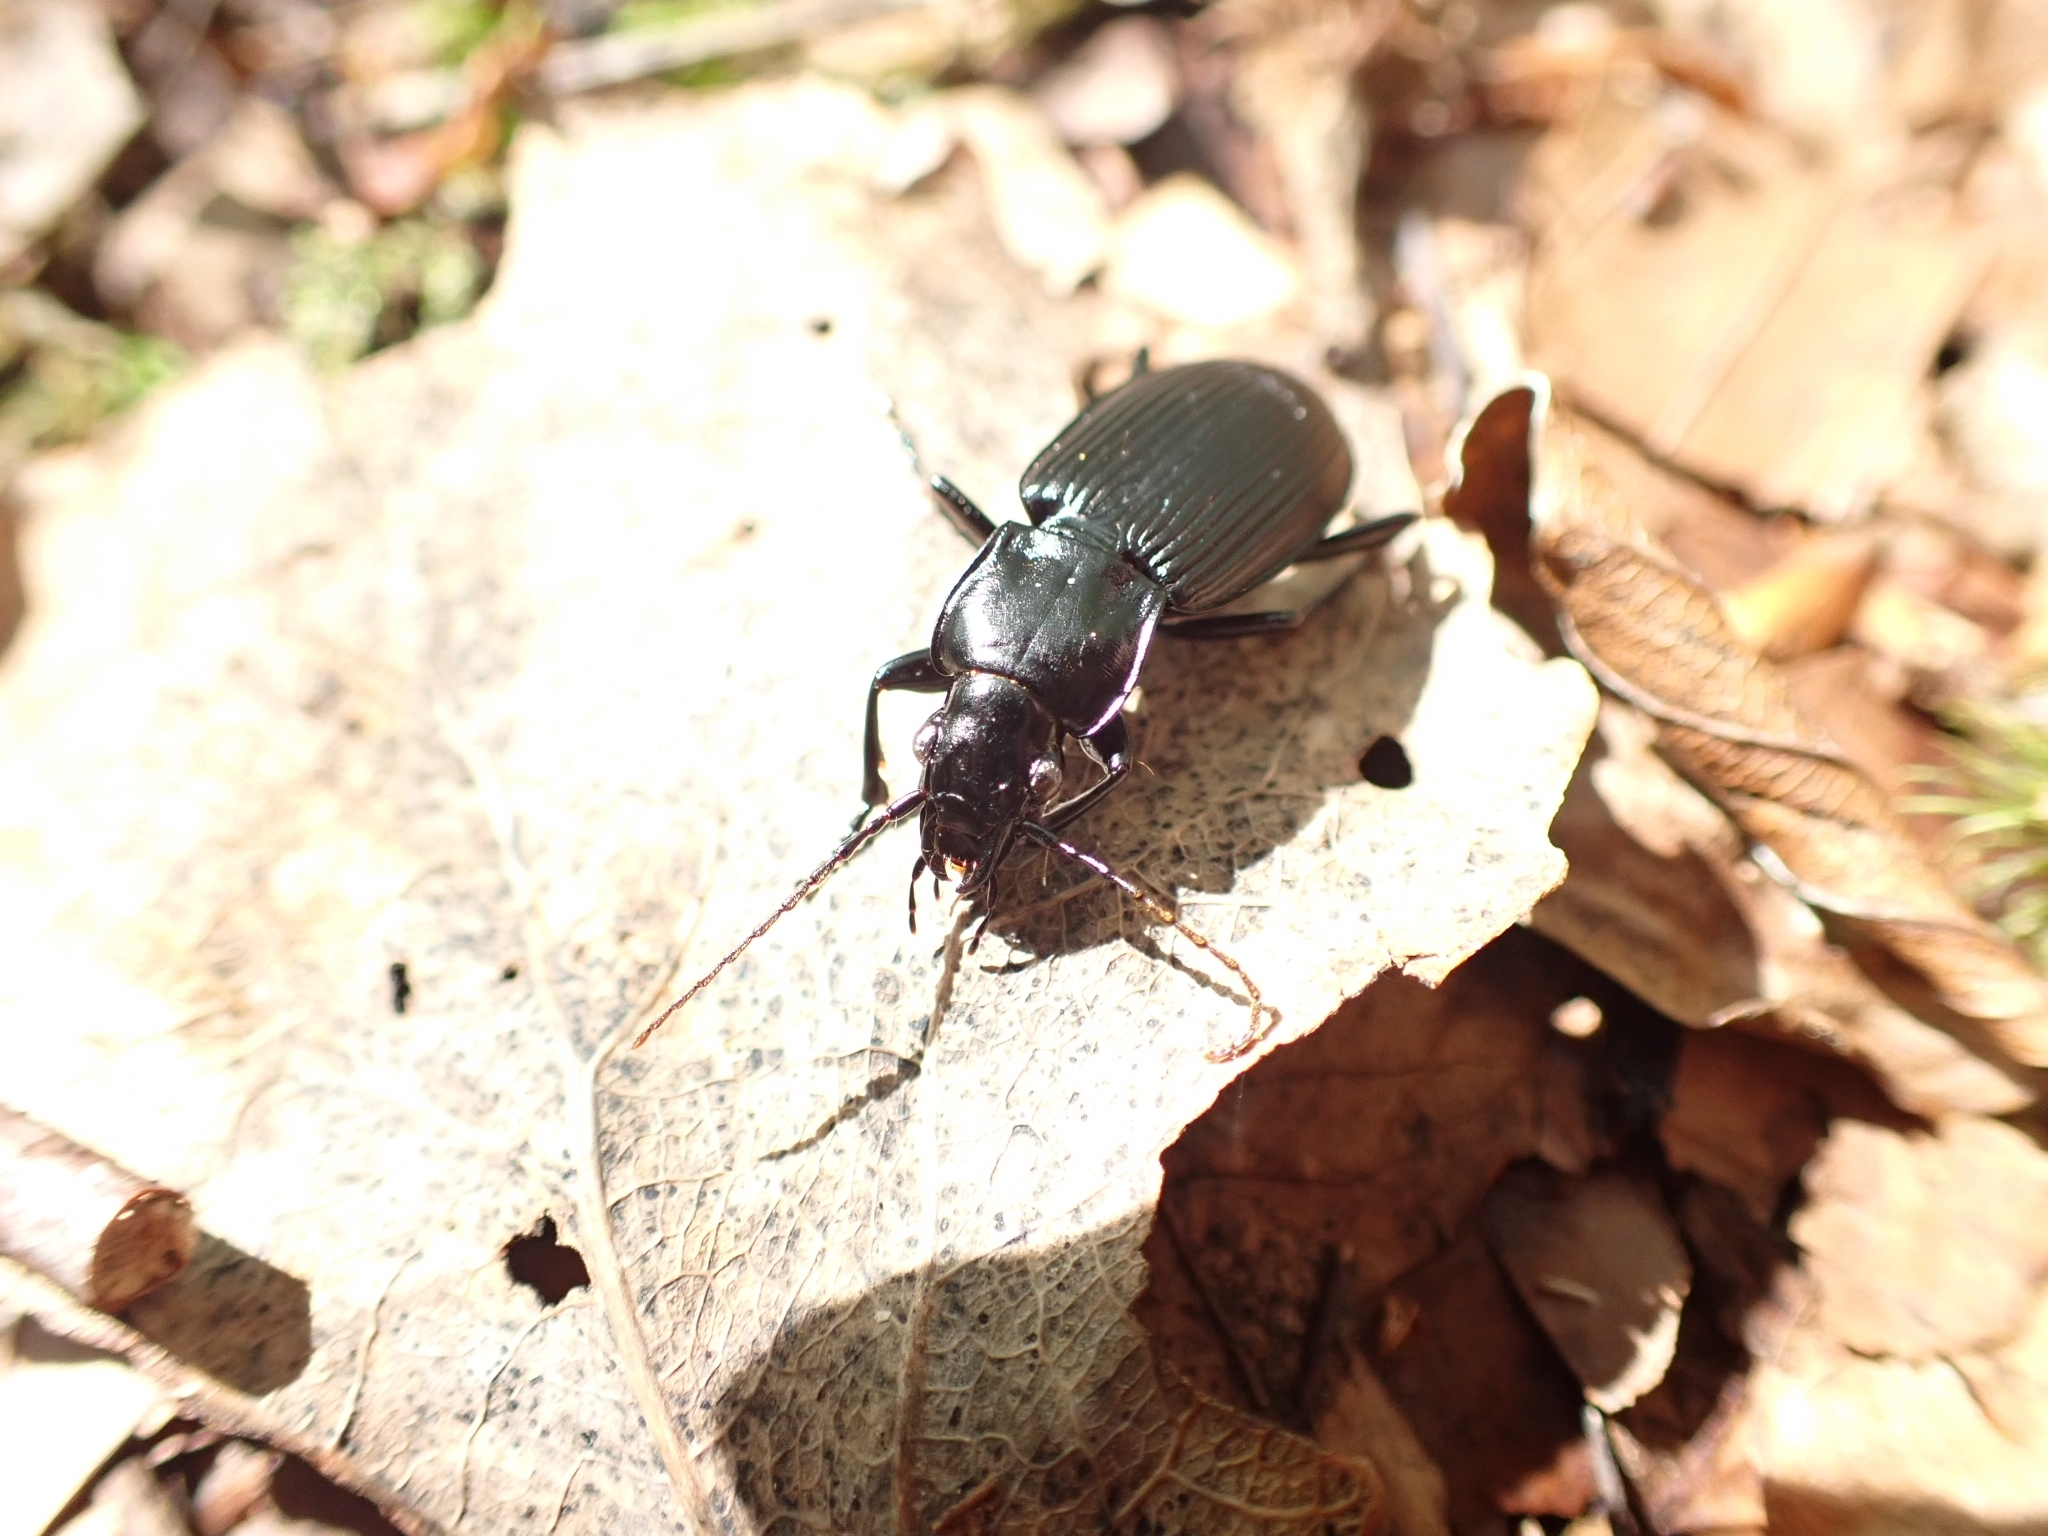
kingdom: Animalia
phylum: Arthropoda
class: Insecta
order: Coleoptera
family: Carabidae
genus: Pterostichus
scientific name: Pterostichus niger
